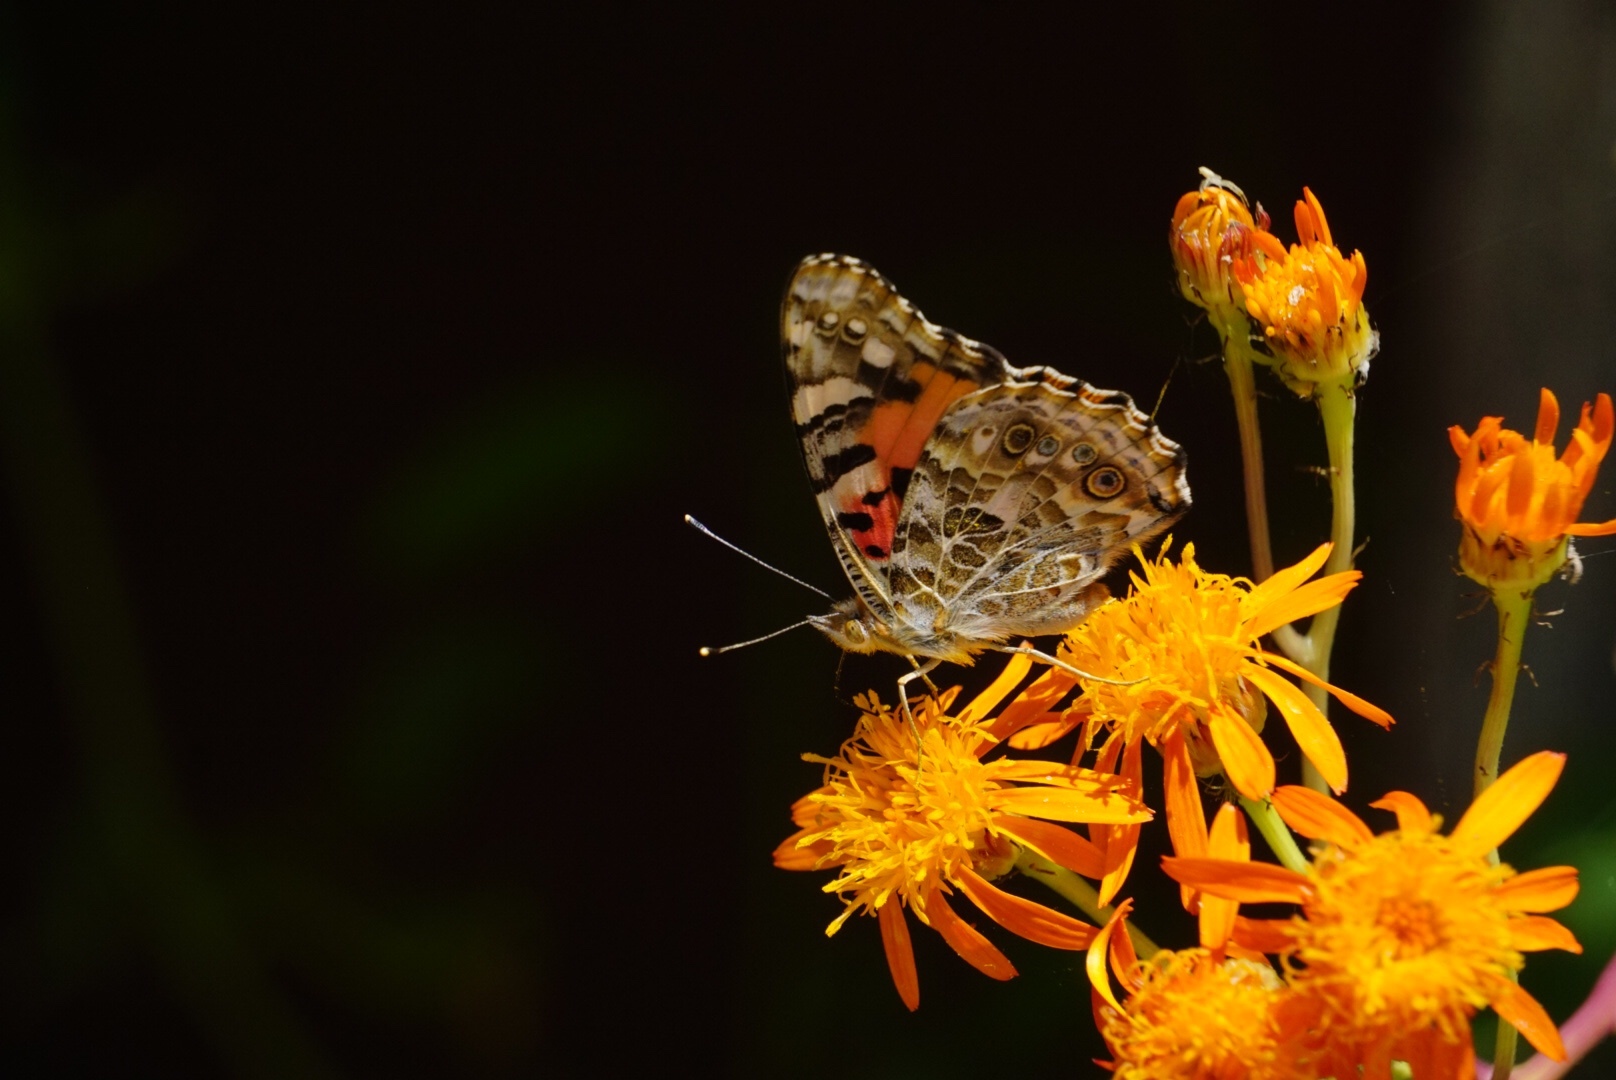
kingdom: Animalia
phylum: Arthropoda
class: Insecta
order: Lepidoptera
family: Nymphalidae
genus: Vanessa
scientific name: Vanessa cardui
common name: Painted lady
